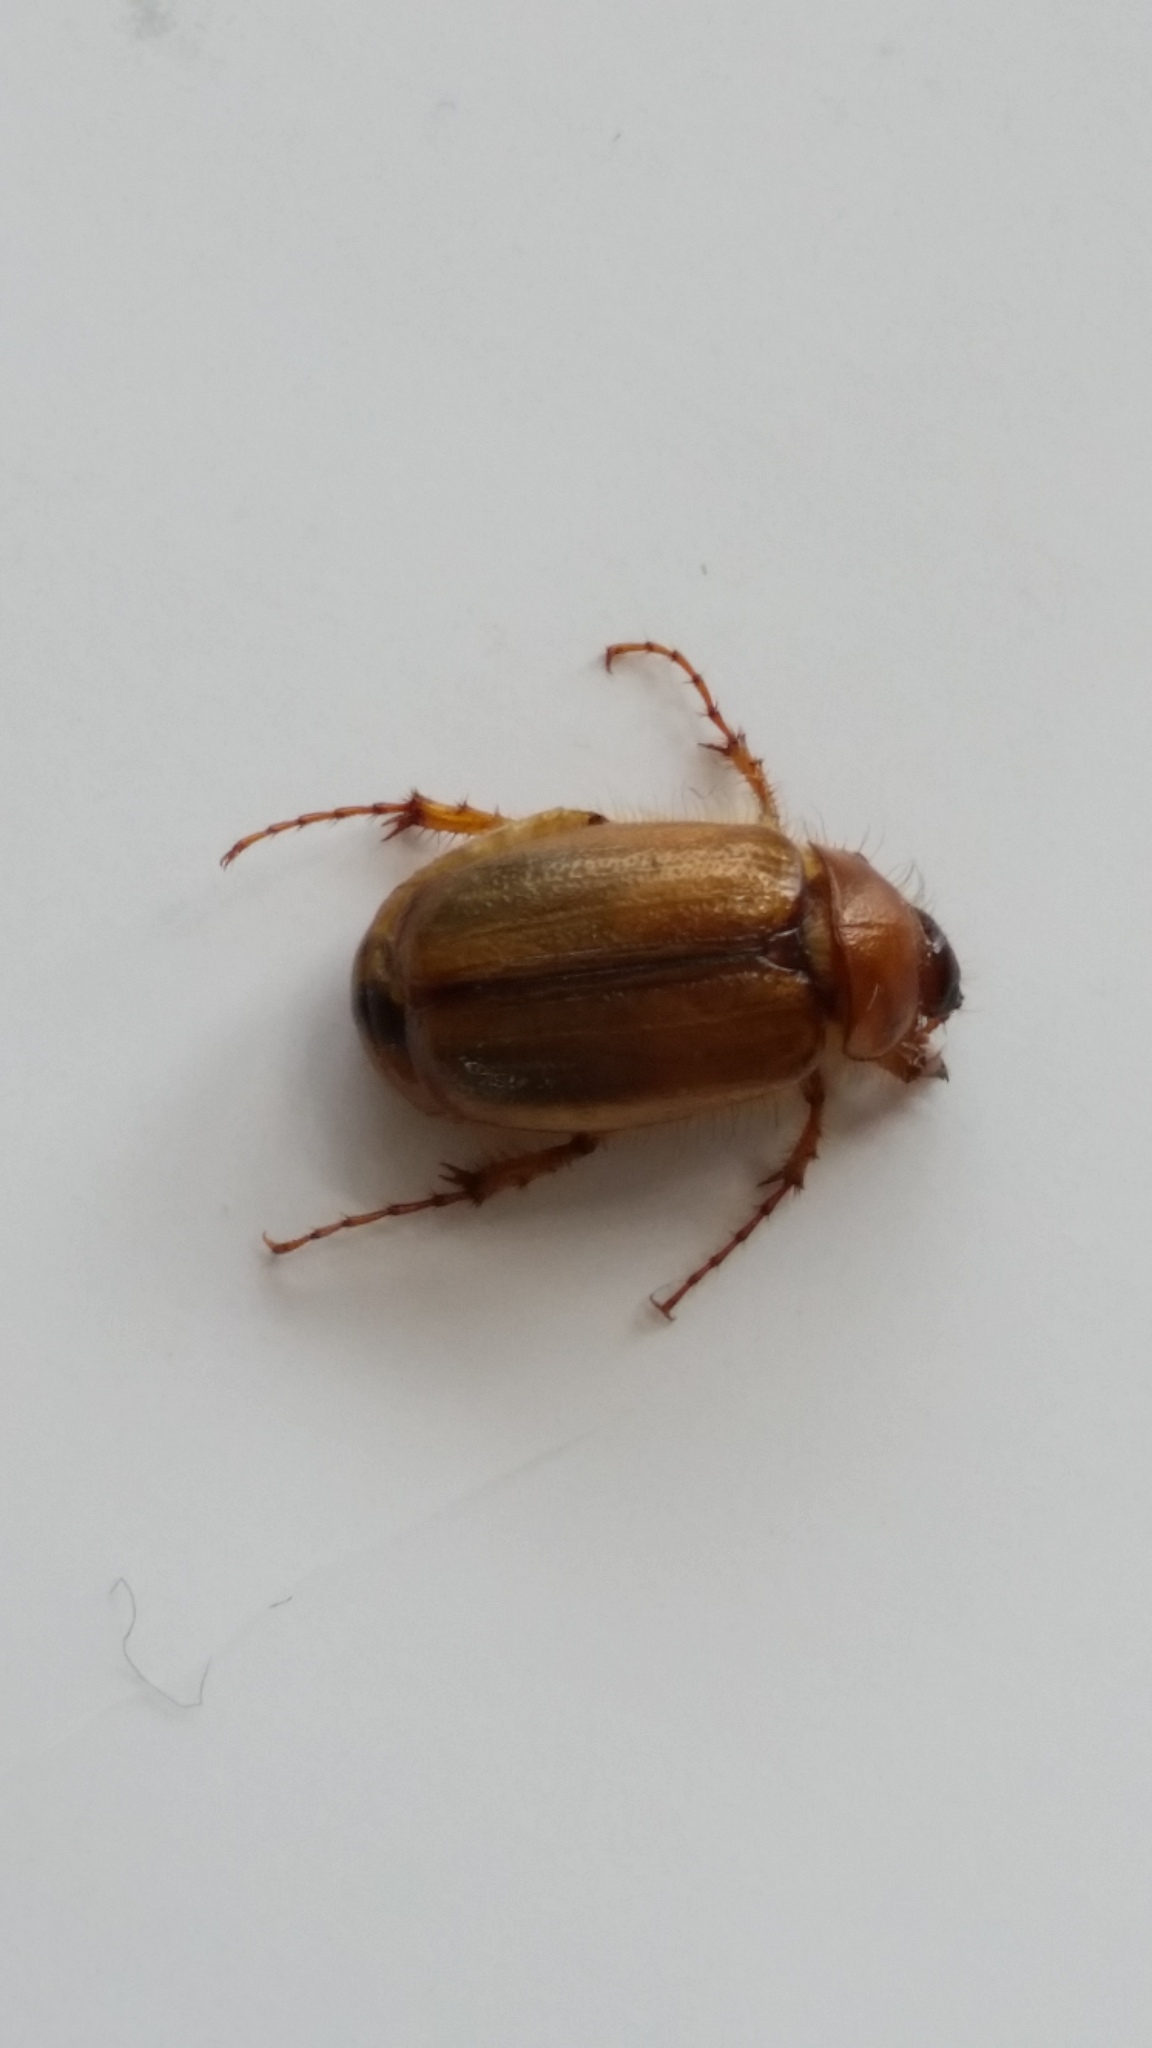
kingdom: Animalia
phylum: Arthropoda
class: Insecta
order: Coleoptera
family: Scarabaeidae
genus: Costelytra
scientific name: Costelytra zealandica
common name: New zealand grass grub
